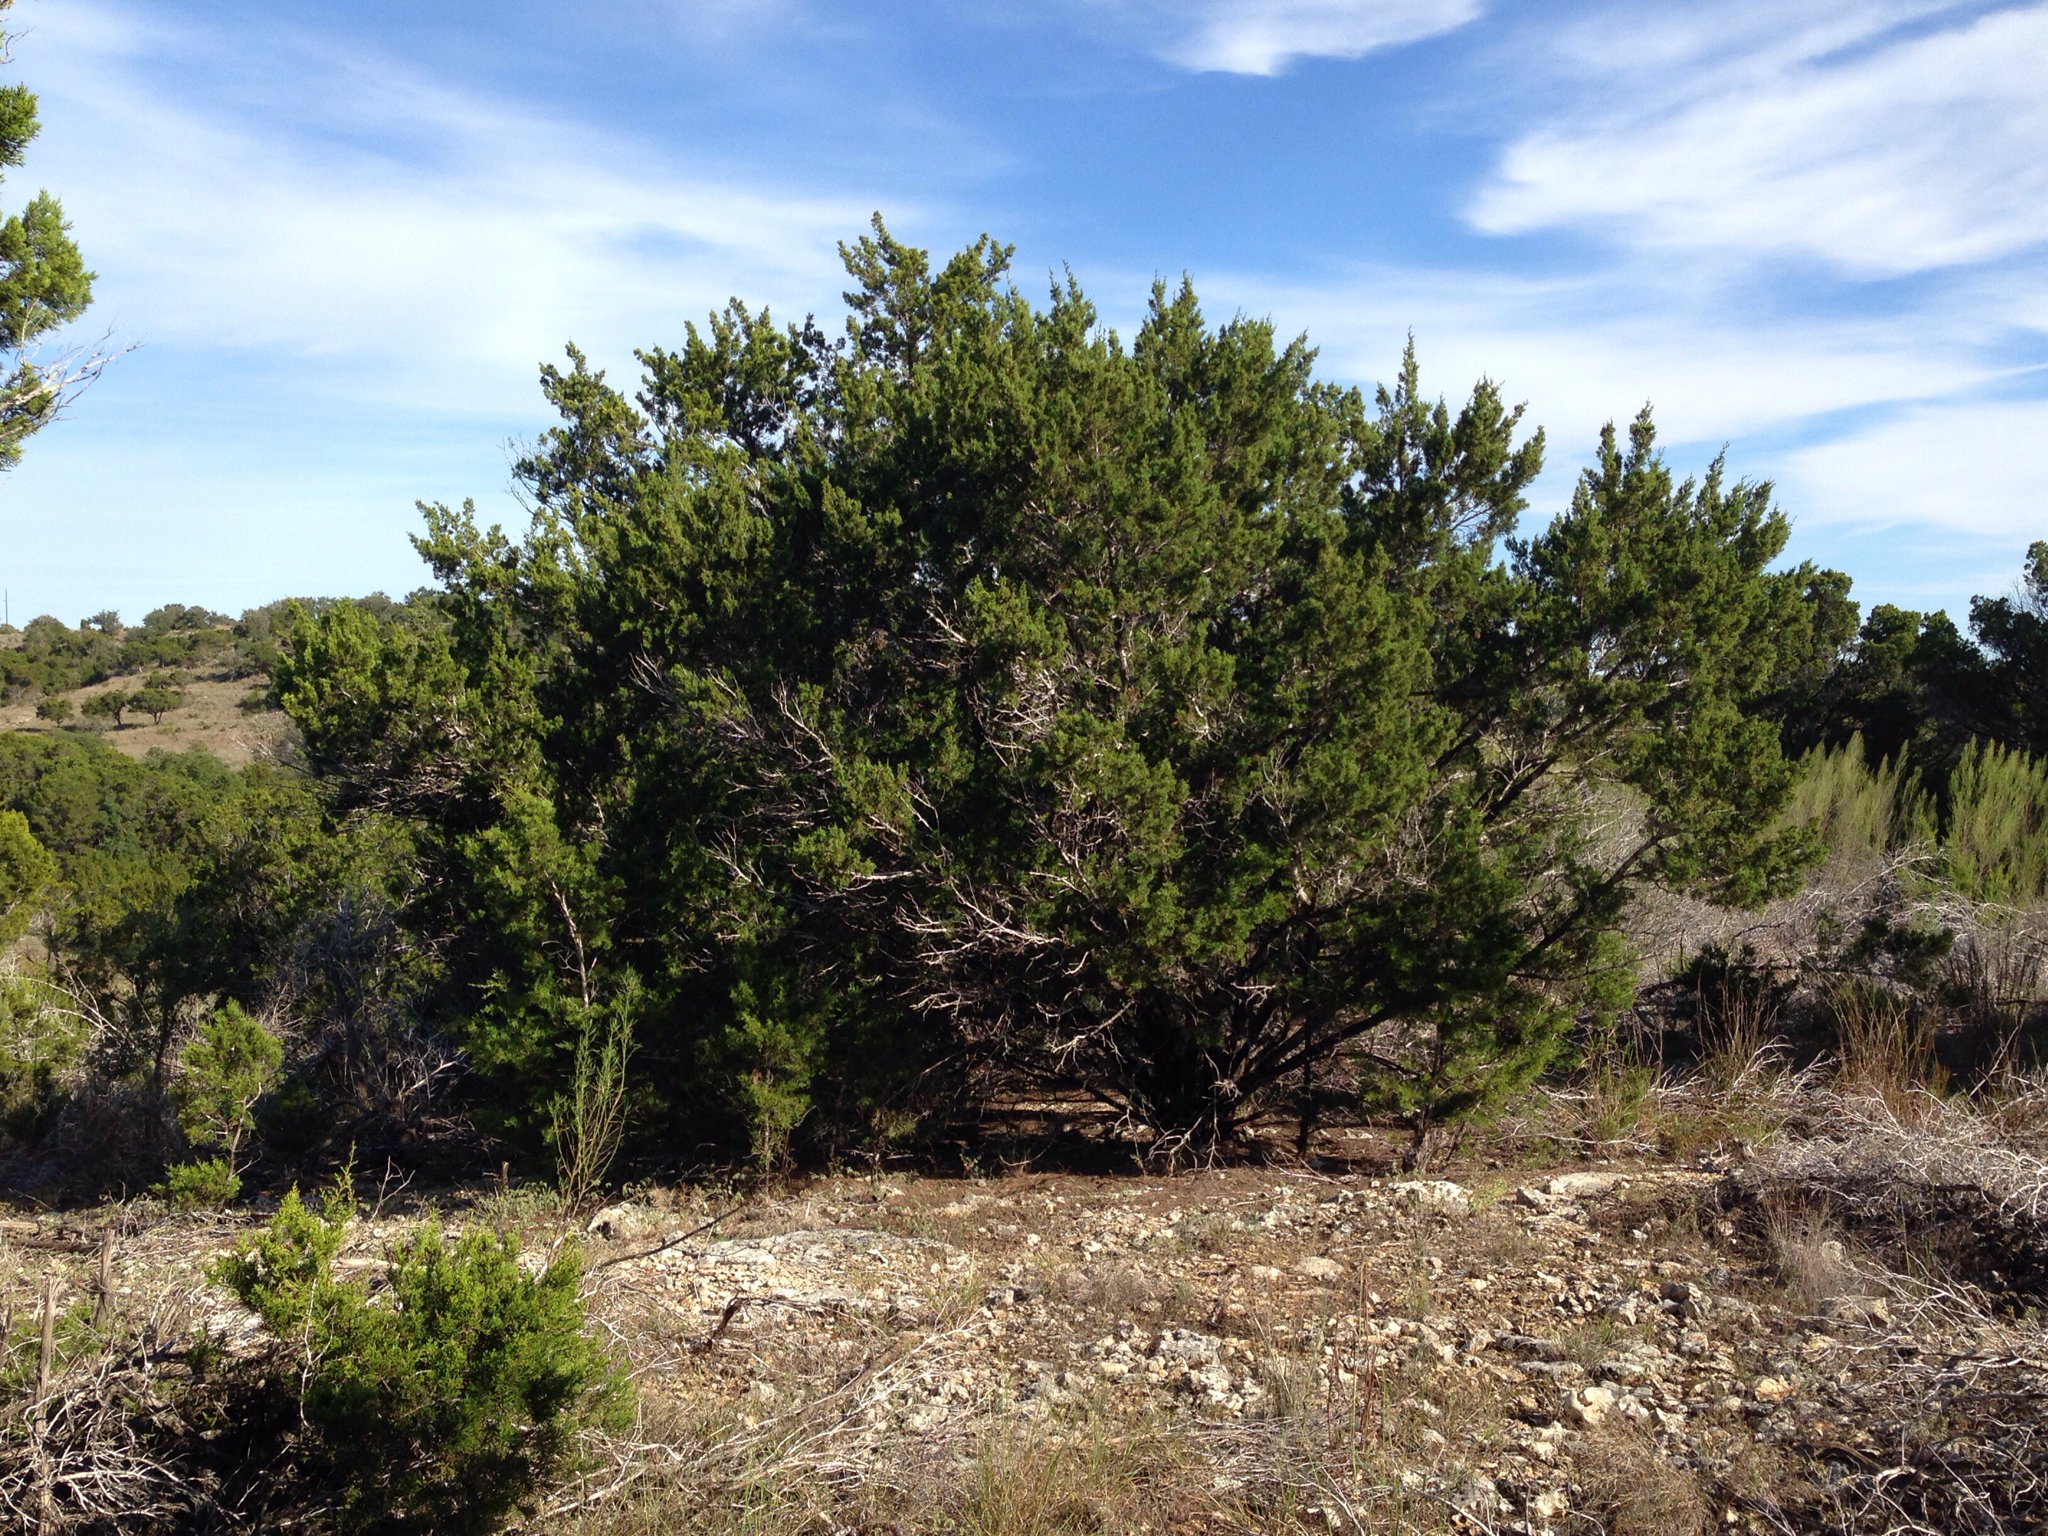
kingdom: Plantae
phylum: Tracheophyta
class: Pinopsida
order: Pinales
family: Cupressaceae
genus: Juniperus
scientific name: Juniperus ashei
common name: Mexican juniper
